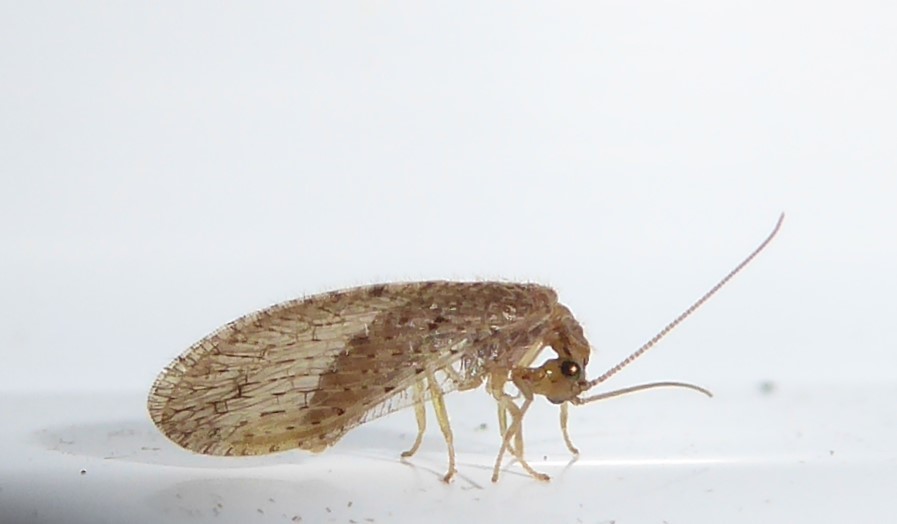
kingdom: Animalia
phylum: Arthropoda
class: Insecta
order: Neuroptera
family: Hemerobiidae
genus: Micromus
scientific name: Micromus tasmaniae
